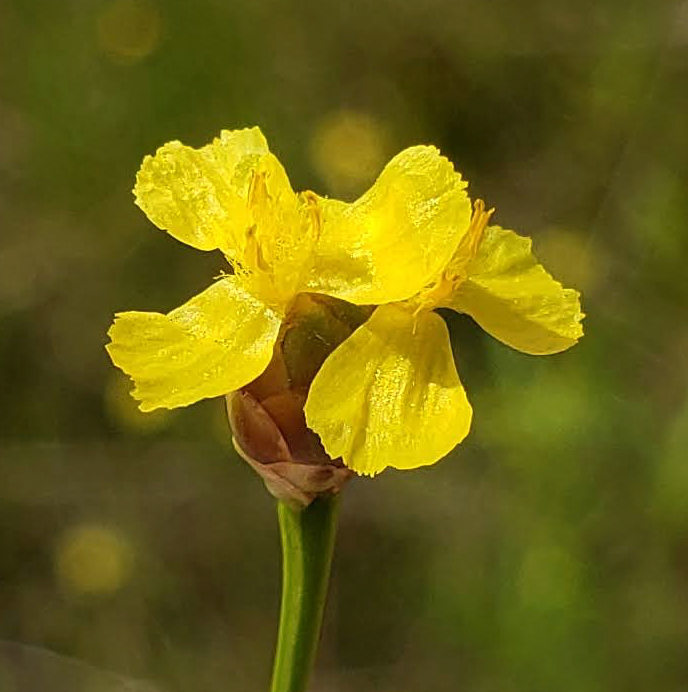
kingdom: Plantae
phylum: Tracheophyta
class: Liliopsida
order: Poales
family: Xyridaceae
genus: Xyris
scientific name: Xyris torta
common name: Common yelloweyed grass
